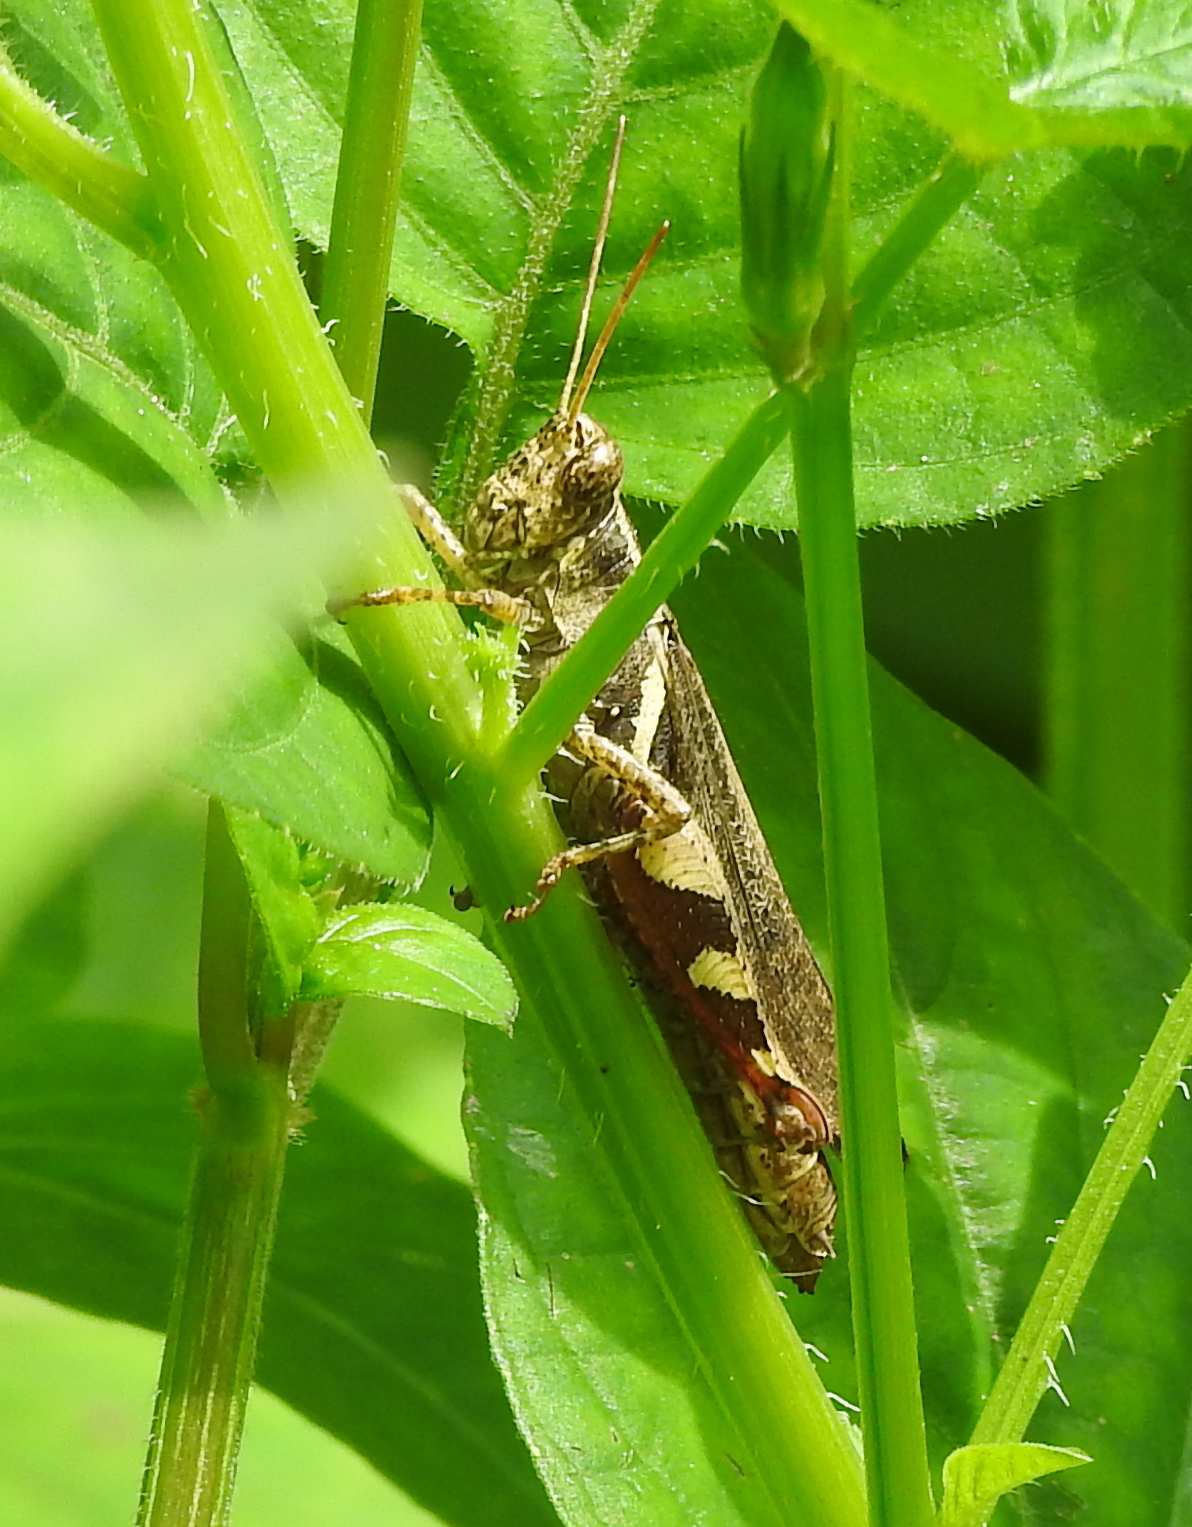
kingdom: Animalia
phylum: Arthropoda
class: Insecta
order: Orthoptera
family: Acrididae
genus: Xenocatantops
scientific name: Xenocatantops humile
